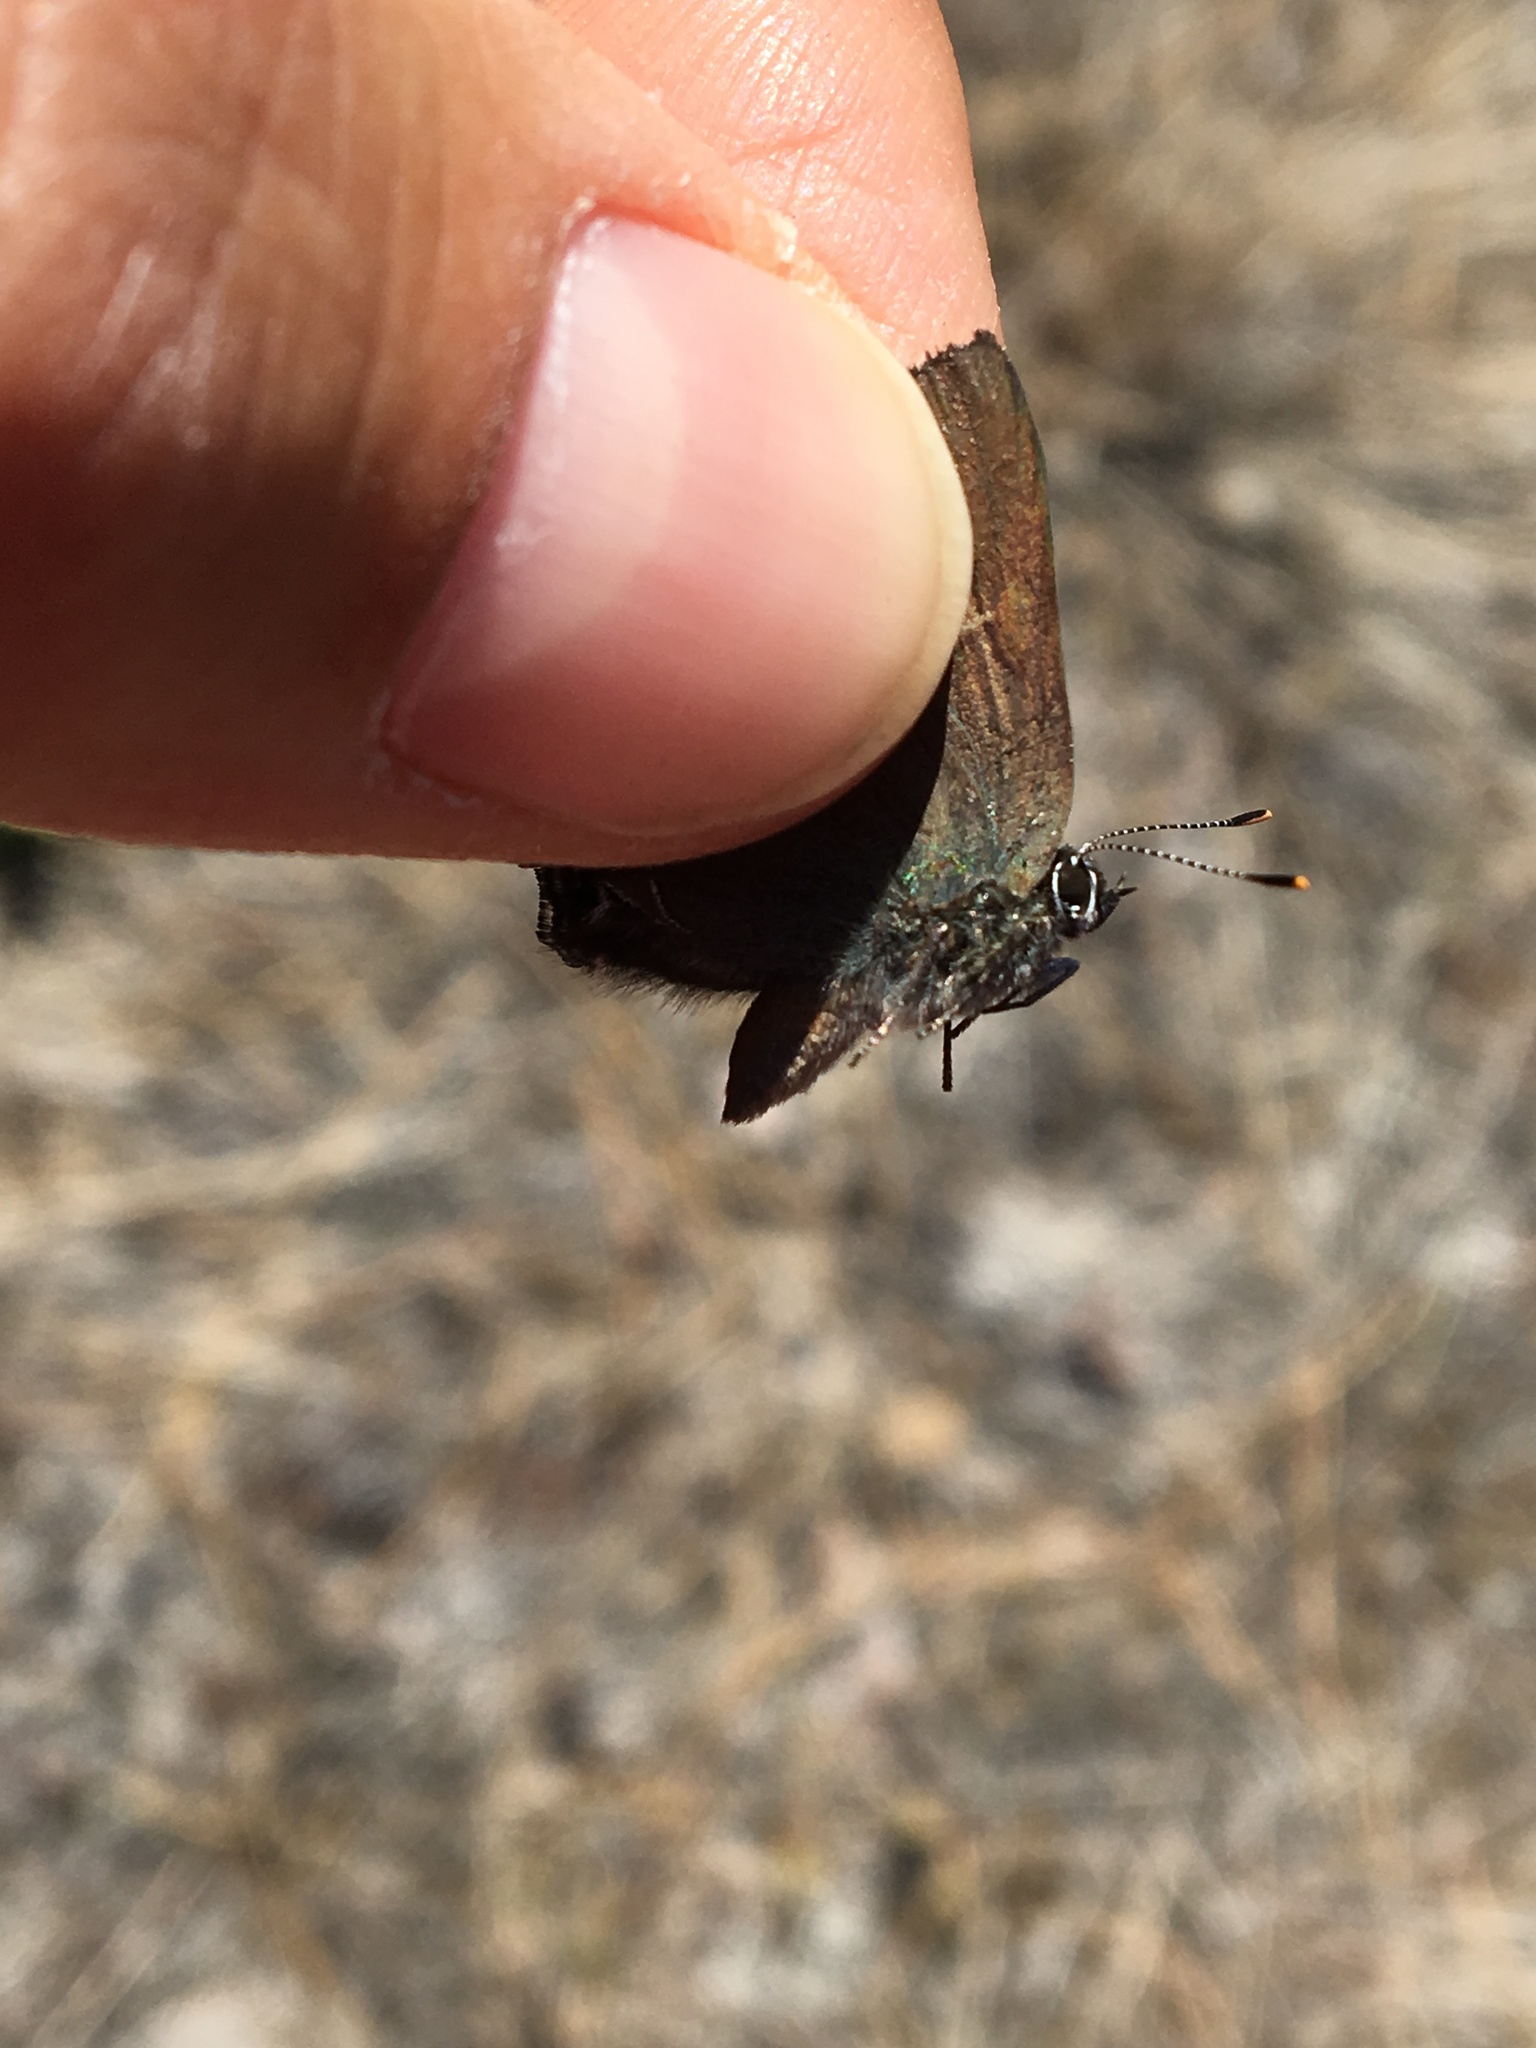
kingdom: Animalia
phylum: Arthropoda
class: Insecta
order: Lepidoptera
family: Lycaenidae
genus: Strymon
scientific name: Strymon saepium
